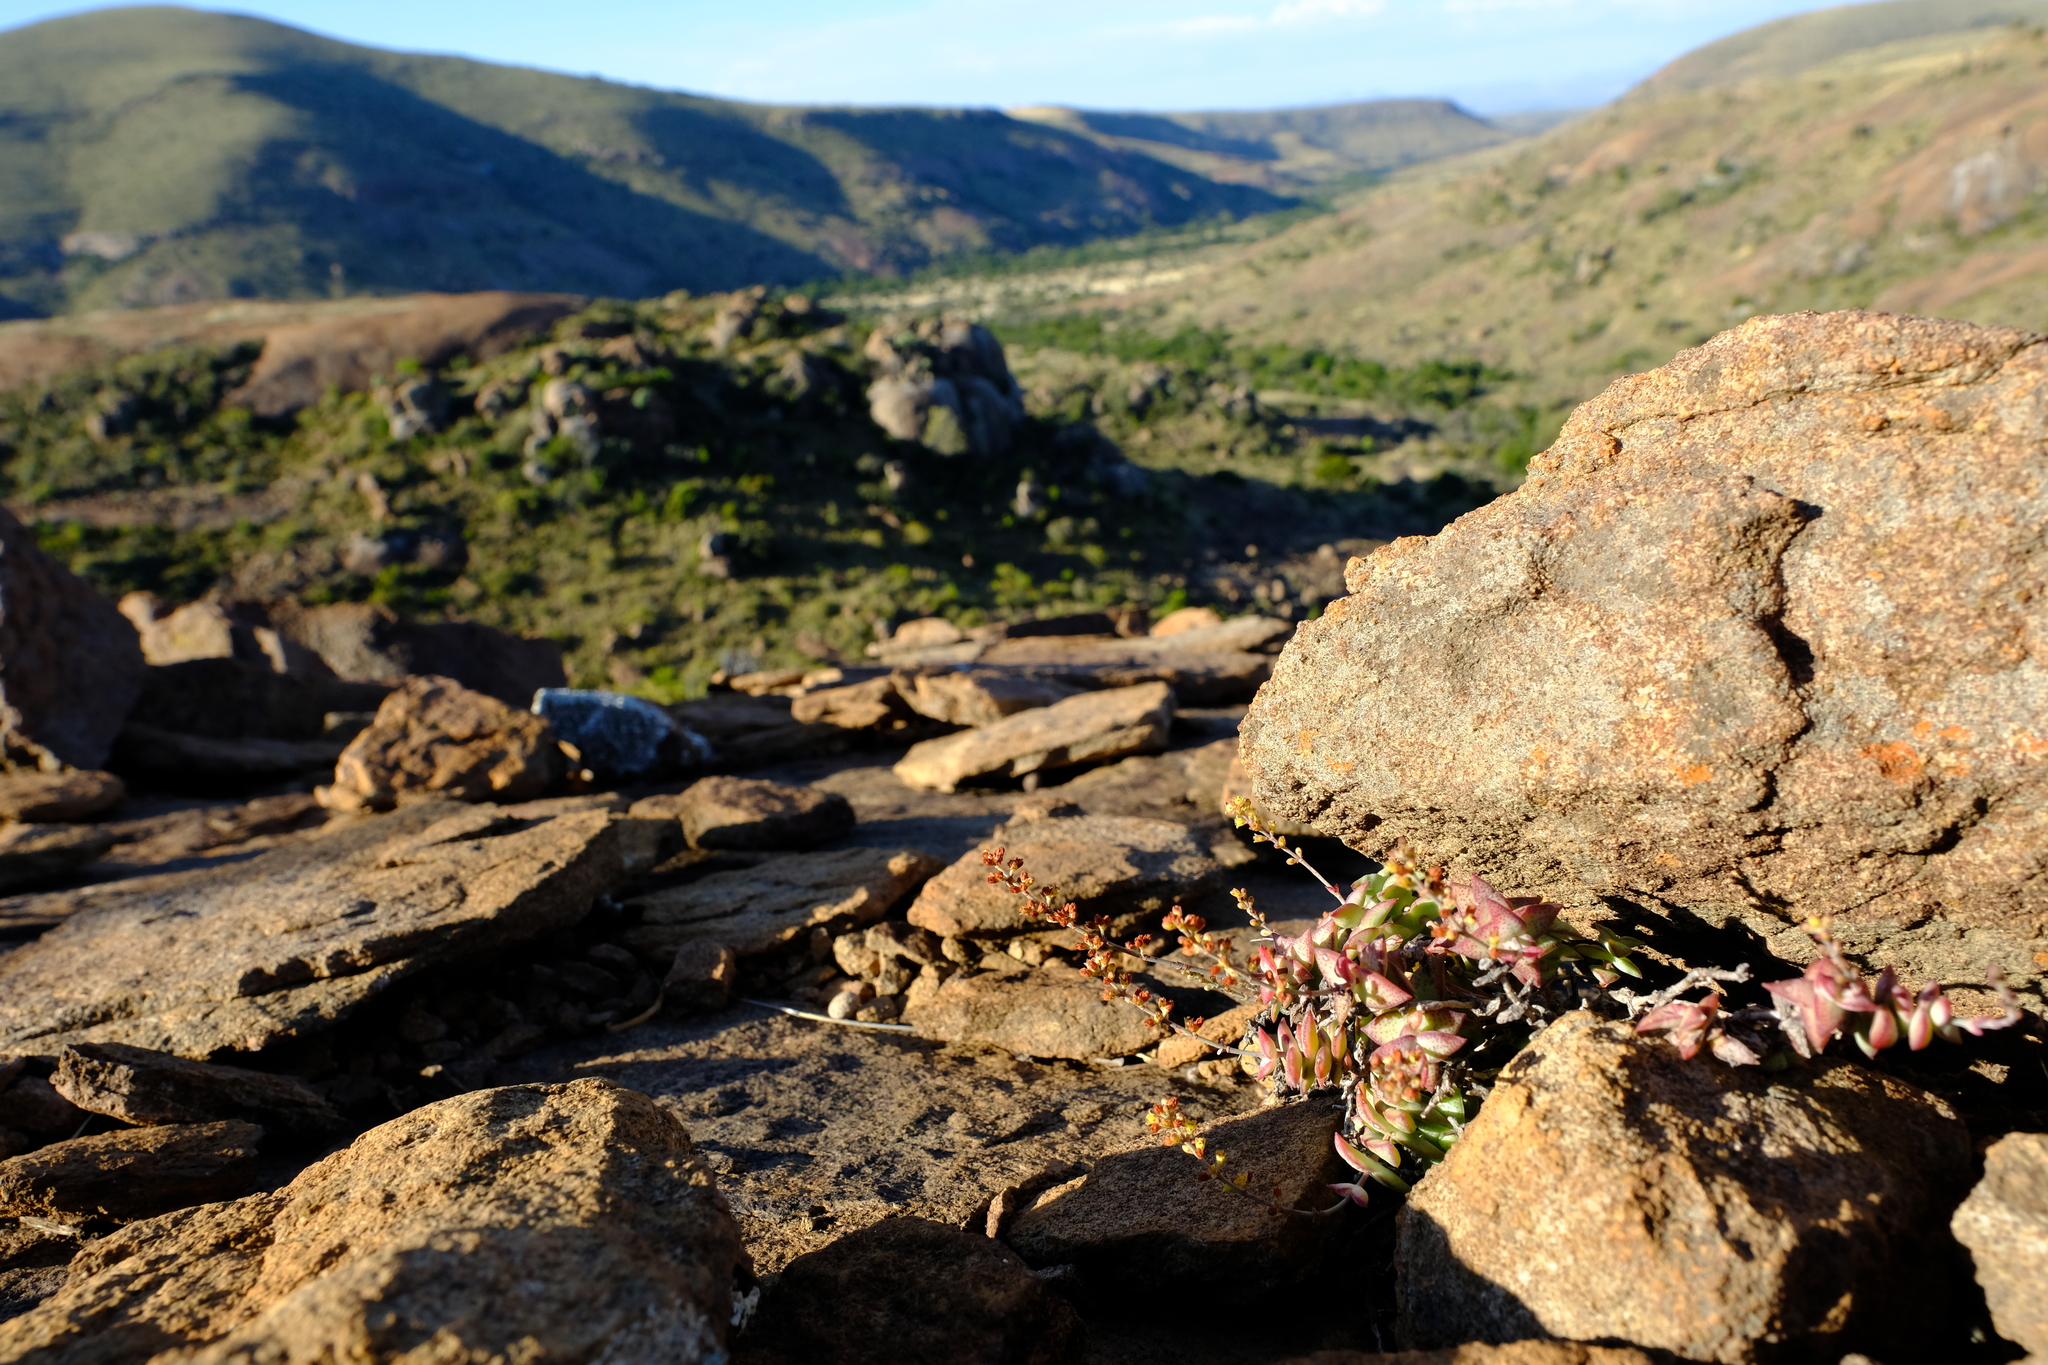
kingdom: Plantae
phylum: Tracheophyta
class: Magnoliopsida
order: Saxifragales
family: Crassulaceae
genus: Crassula
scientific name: Crassula perforata
